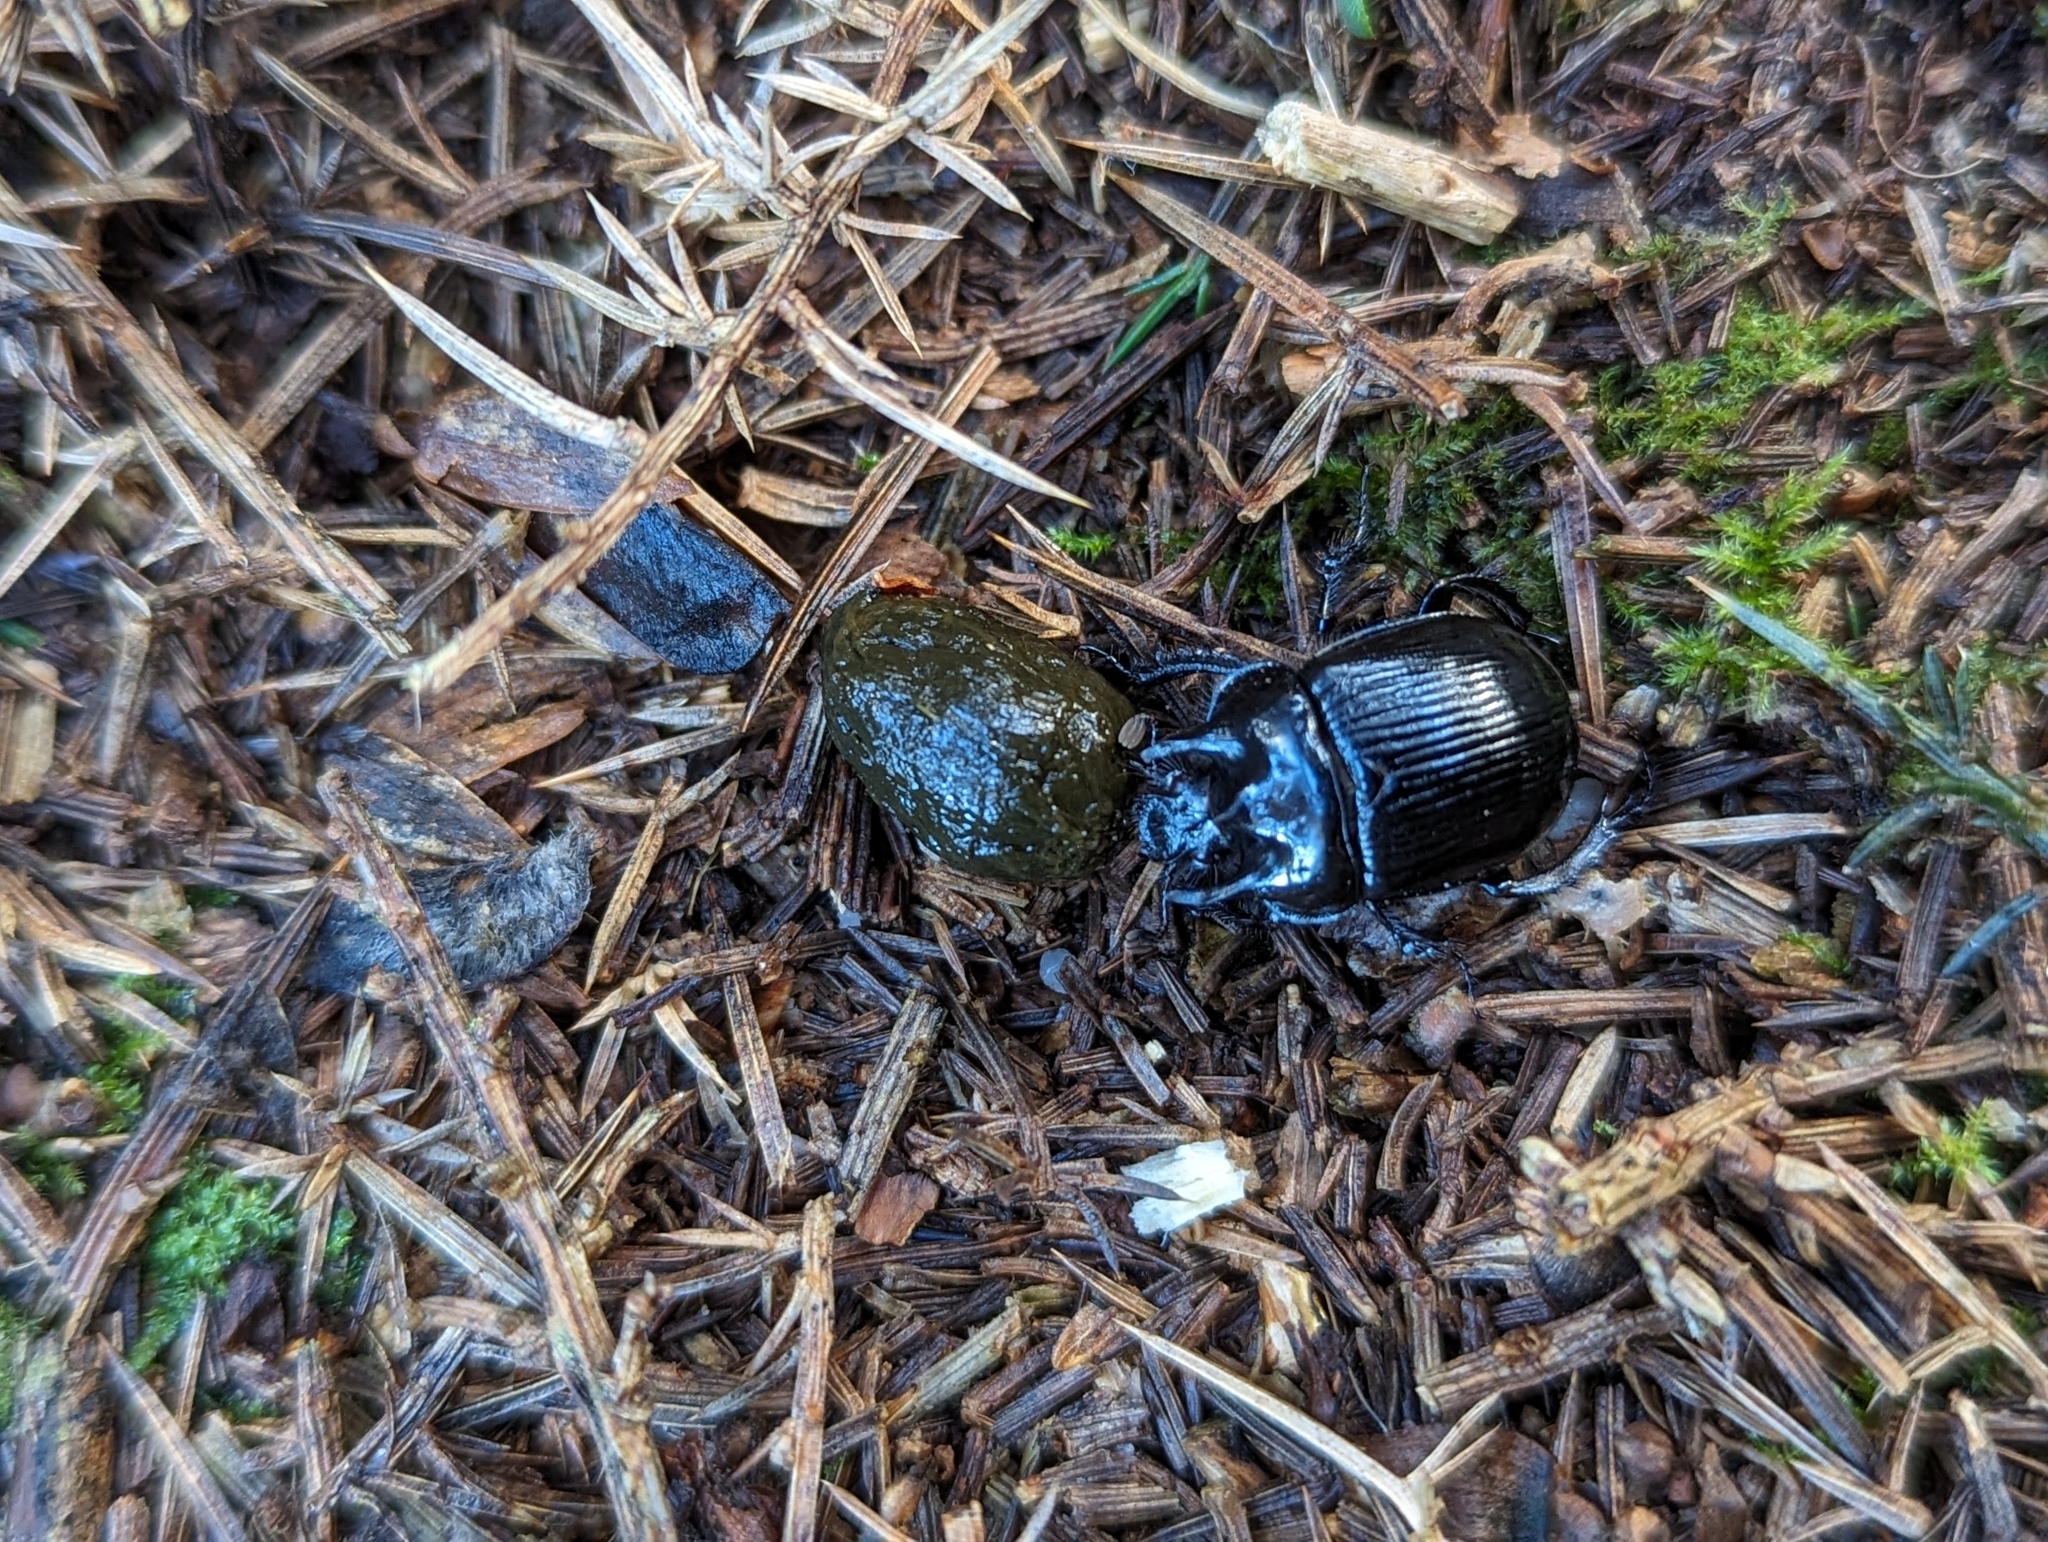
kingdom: Animalia
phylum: Arthropoda
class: Insecta
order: Coleoptera
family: Geotrupidae
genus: Typhaeus
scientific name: Typhaeus typhoeus
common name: Minotaur beetle
